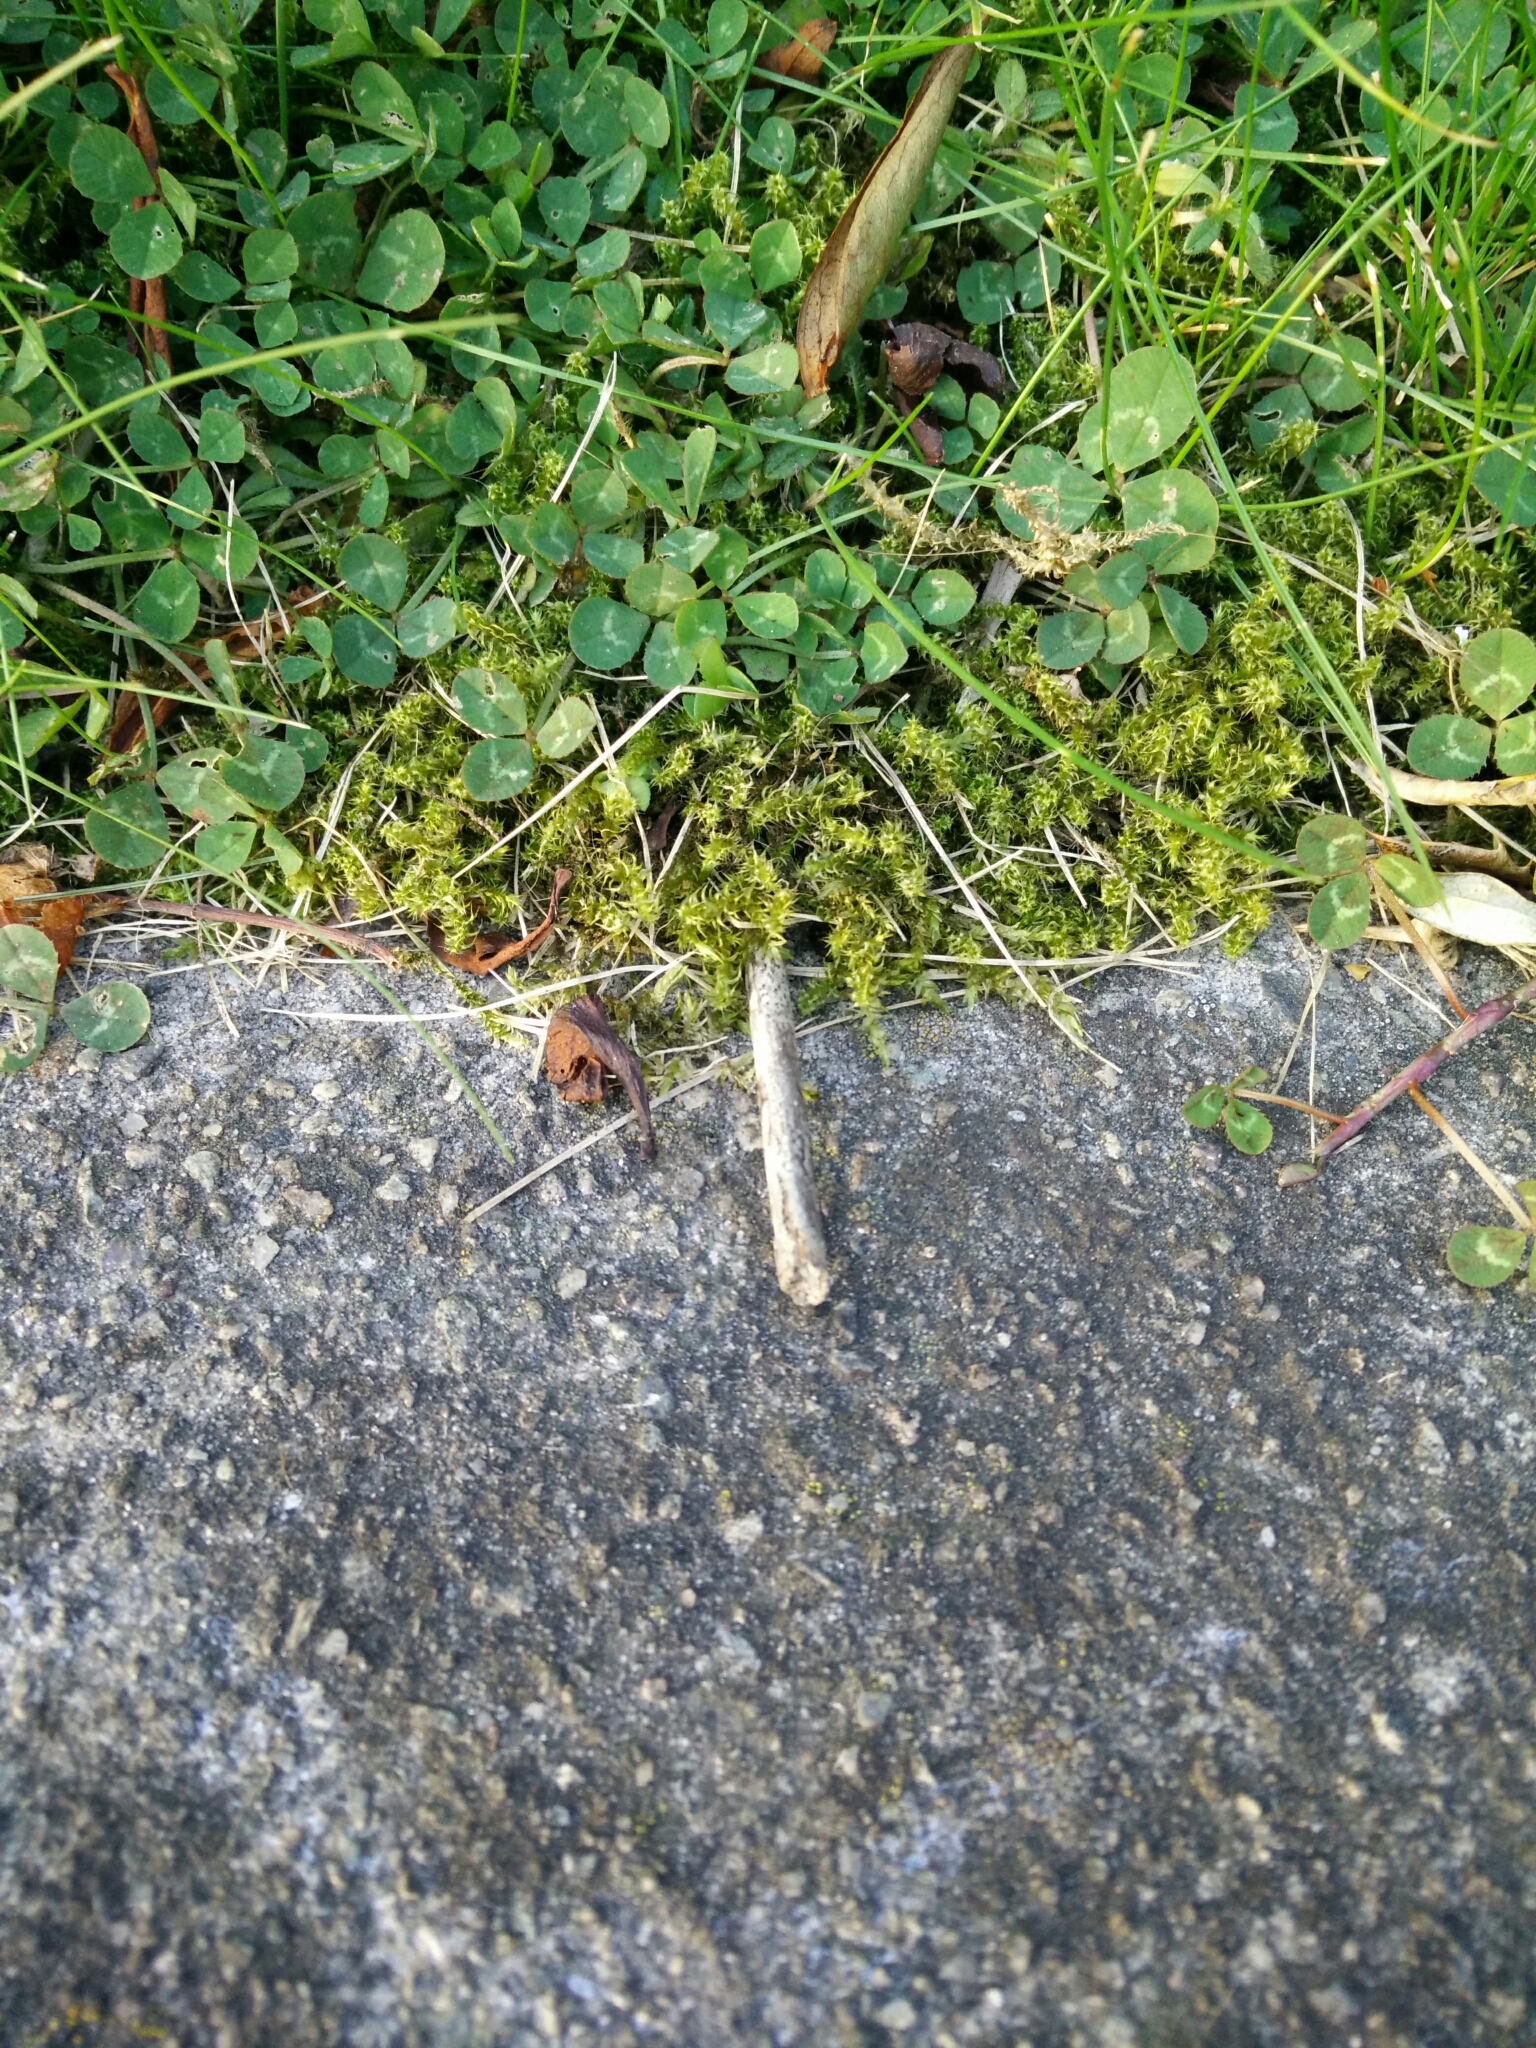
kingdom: Plantae
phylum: Bryophyta
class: Bryopsida
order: Hypnales
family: Hylocomiaceae
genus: Rhytidiadelphus
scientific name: Rhytidiadelphus squarrosus
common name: Springy turf-moss
